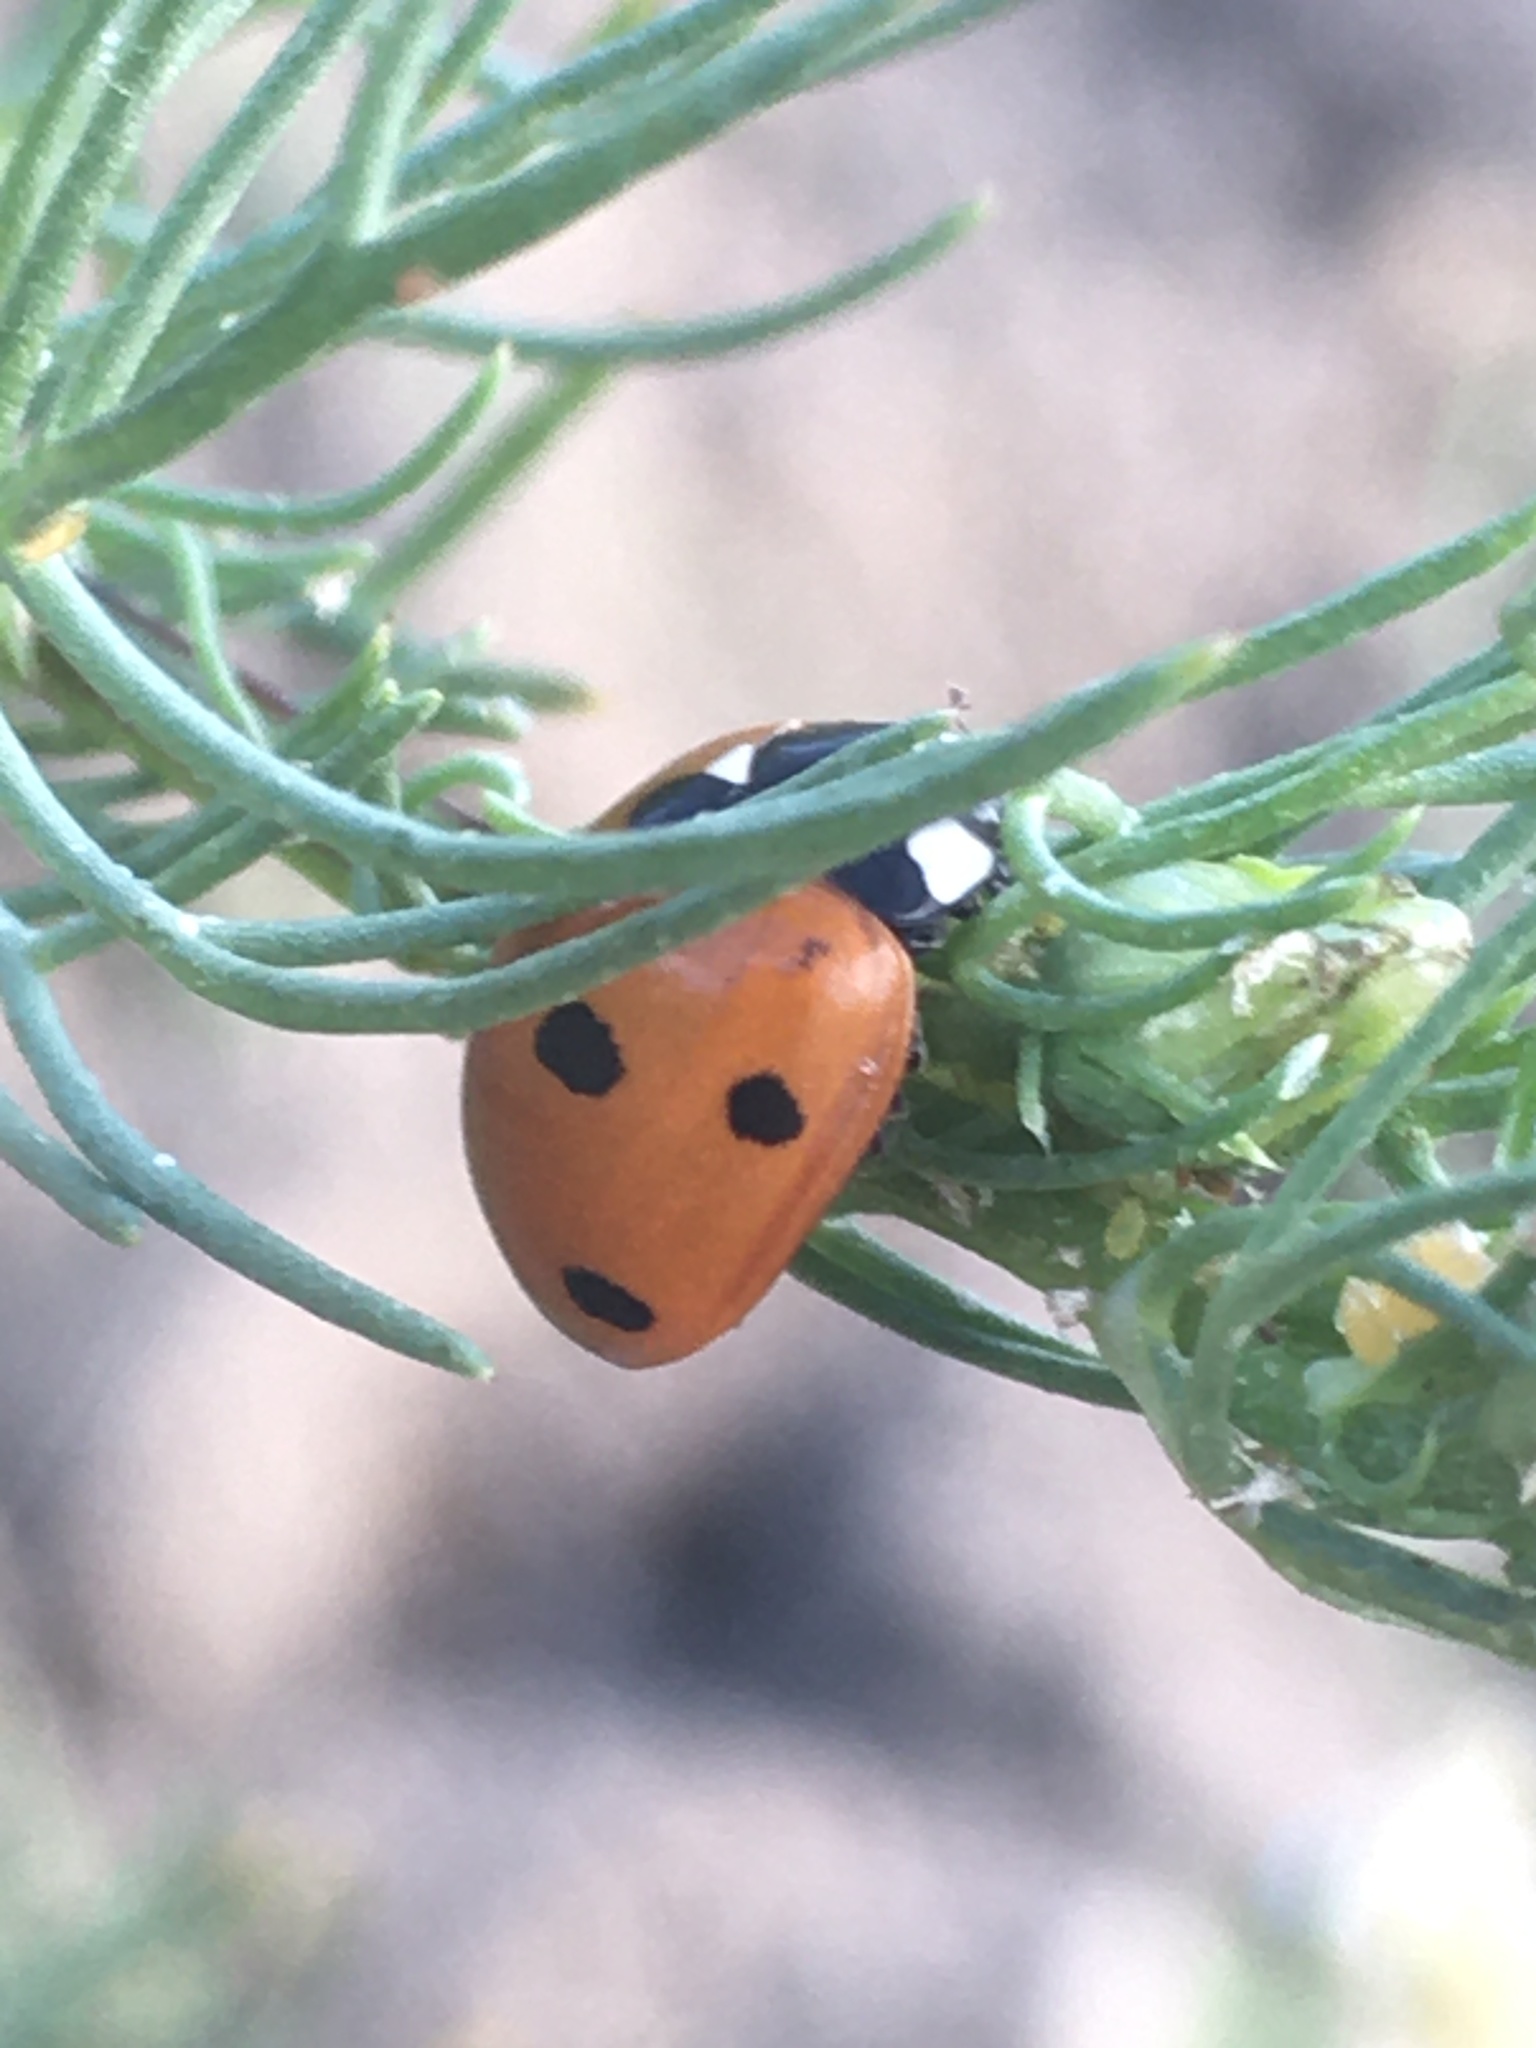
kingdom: Animalia
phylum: Arthropoda
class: Insecta
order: Coleoptera
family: Coccinellidae
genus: Coccinella
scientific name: Coccinella septempunctata
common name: Sevenspotted lady beetle
